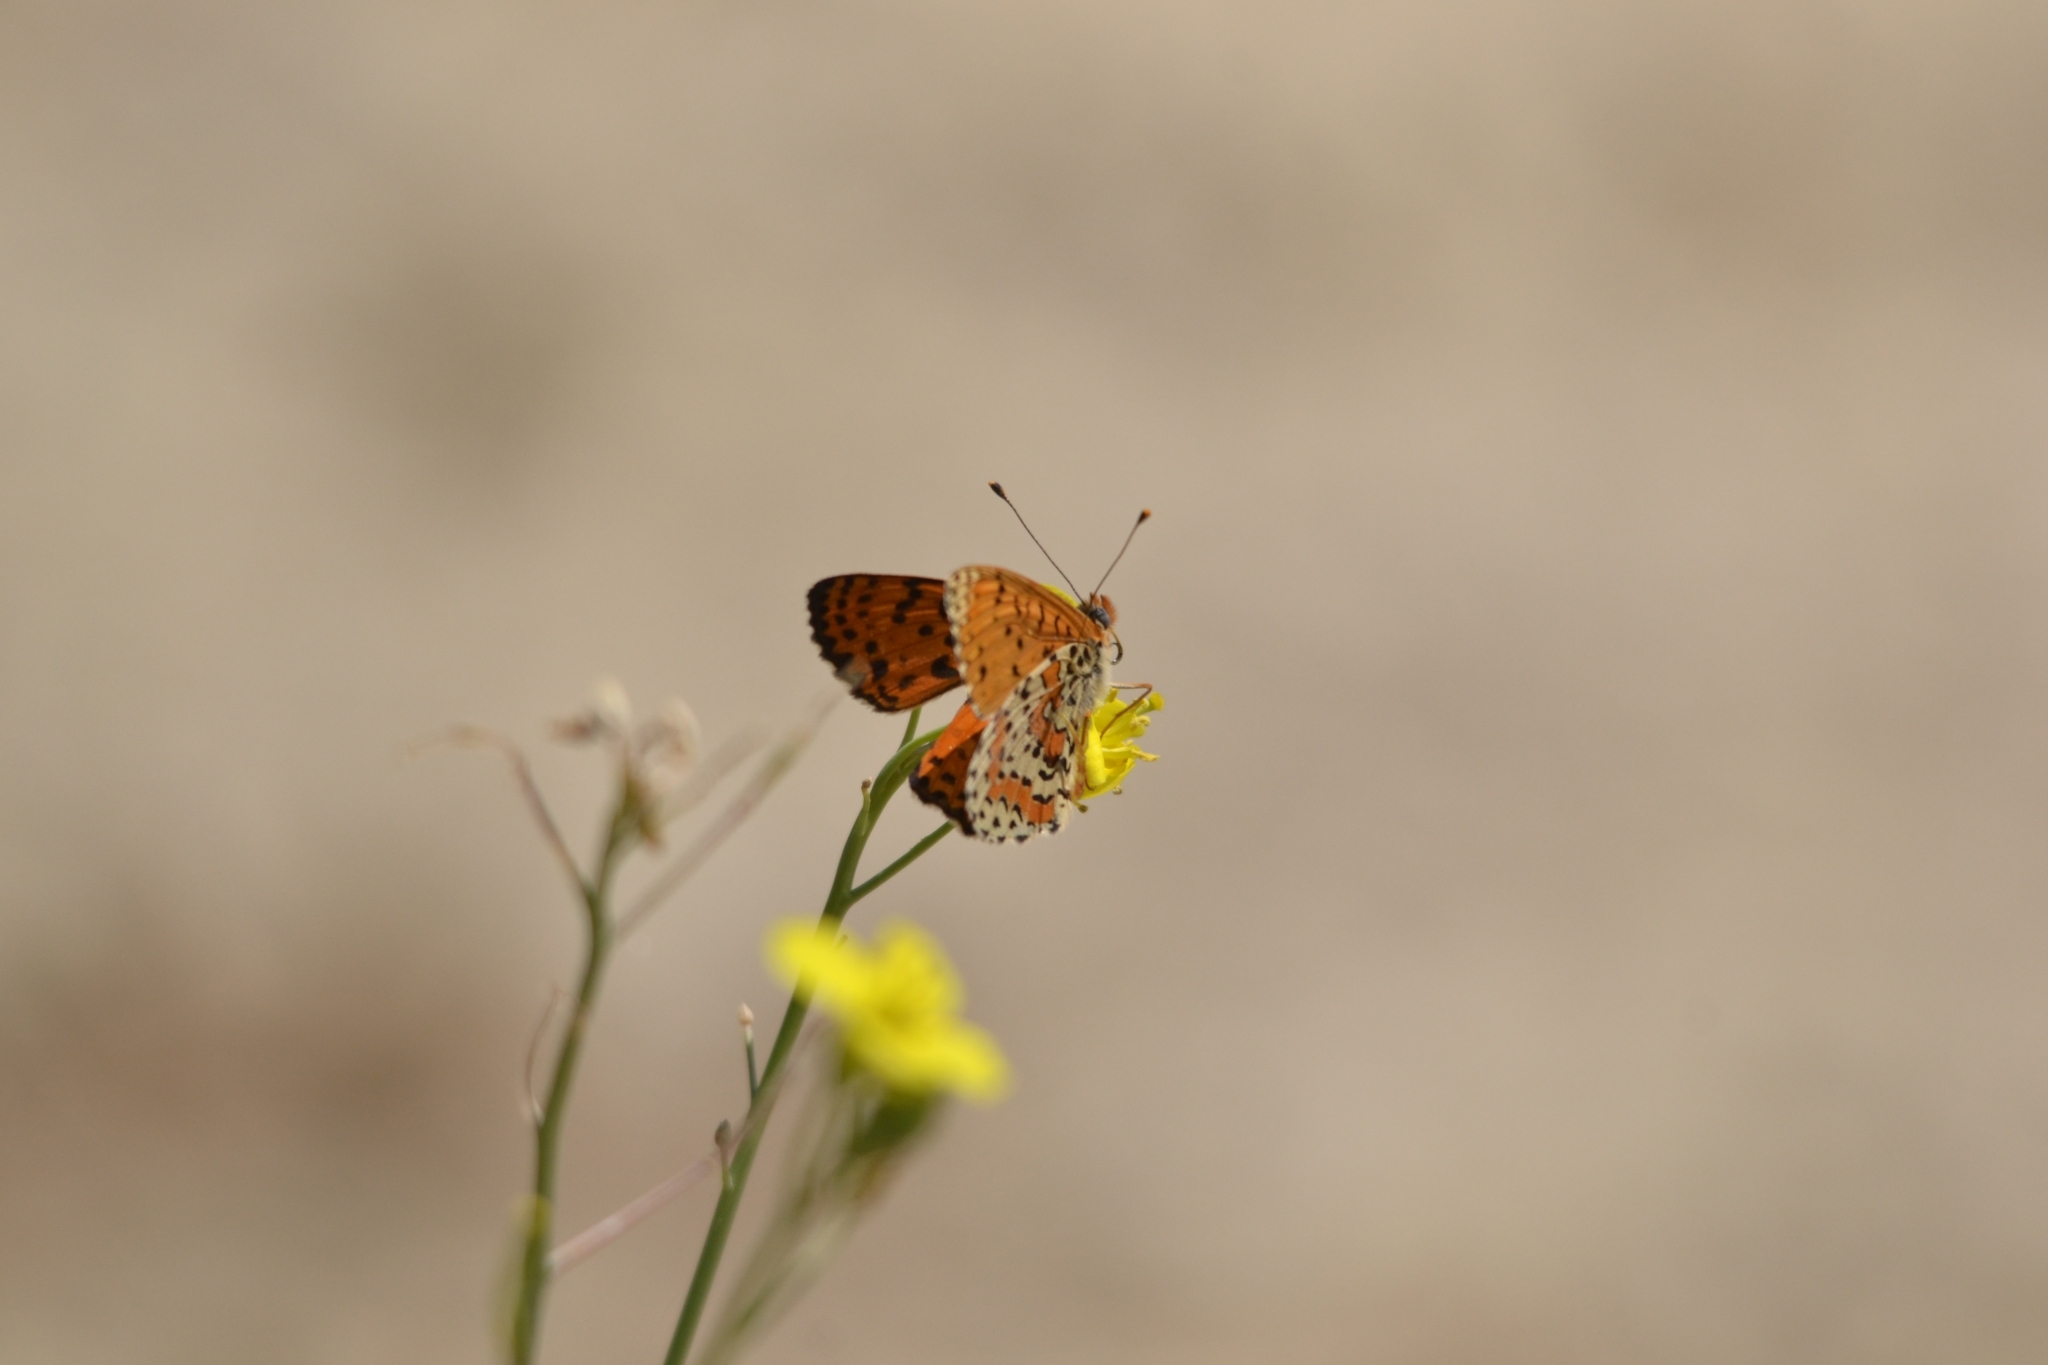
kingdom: Animalia
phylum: Arthropoda
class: Insecta
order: Lepidoptera
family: Nymphalidae
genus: Melitaea
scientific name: Melitaea didyma
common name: Spotted fritillary
